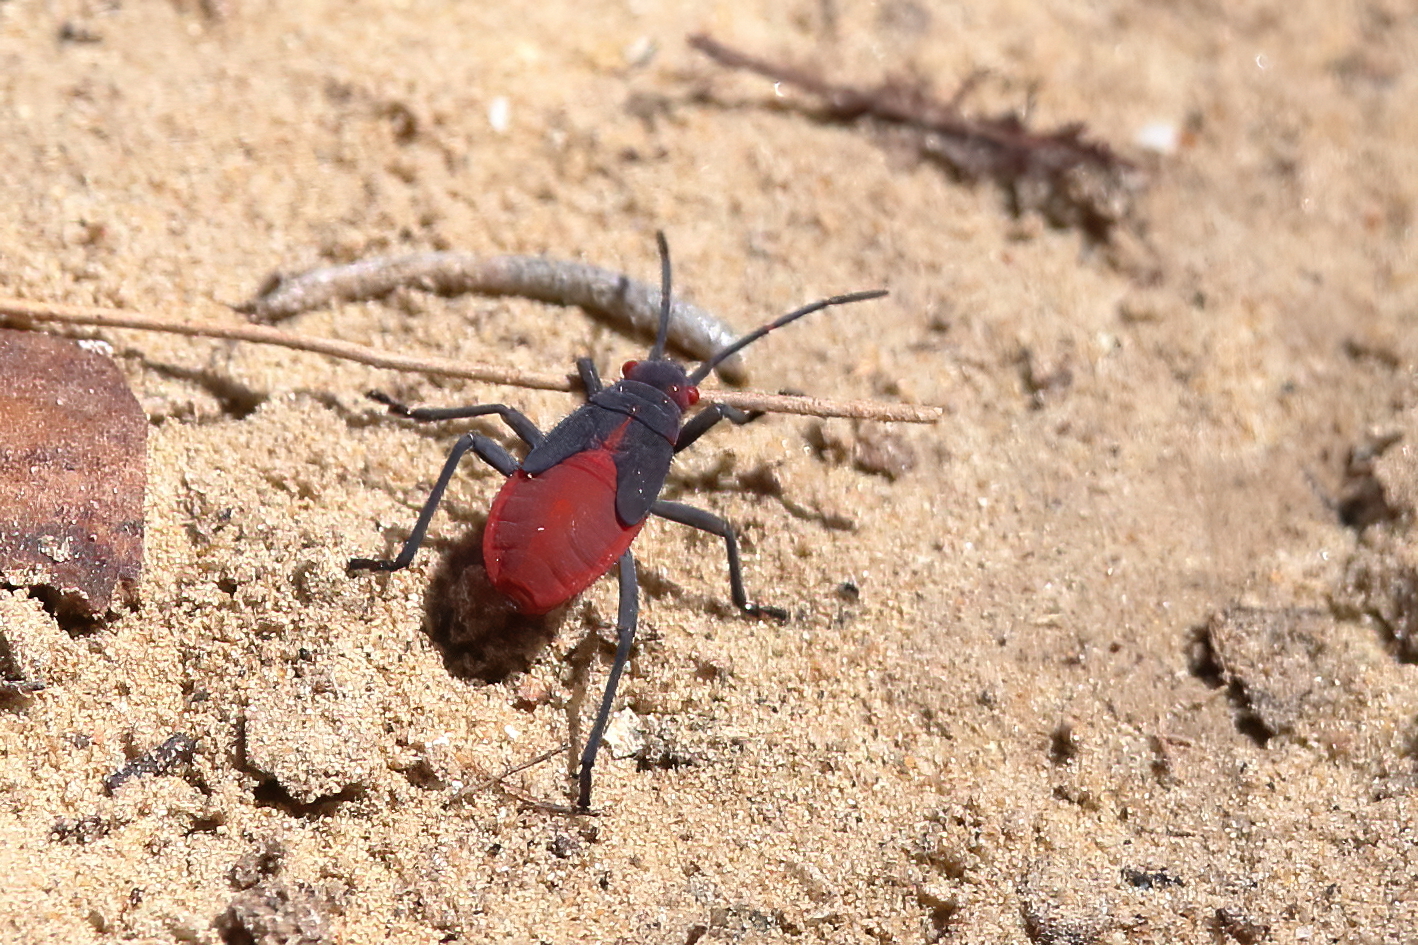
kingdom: Animalia
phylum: Arthropoda
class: Insecta
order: Hemiptera
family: Rhopalidae
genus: Jadera
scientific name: Jadera haematoloma
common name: Red-shouldered bug
